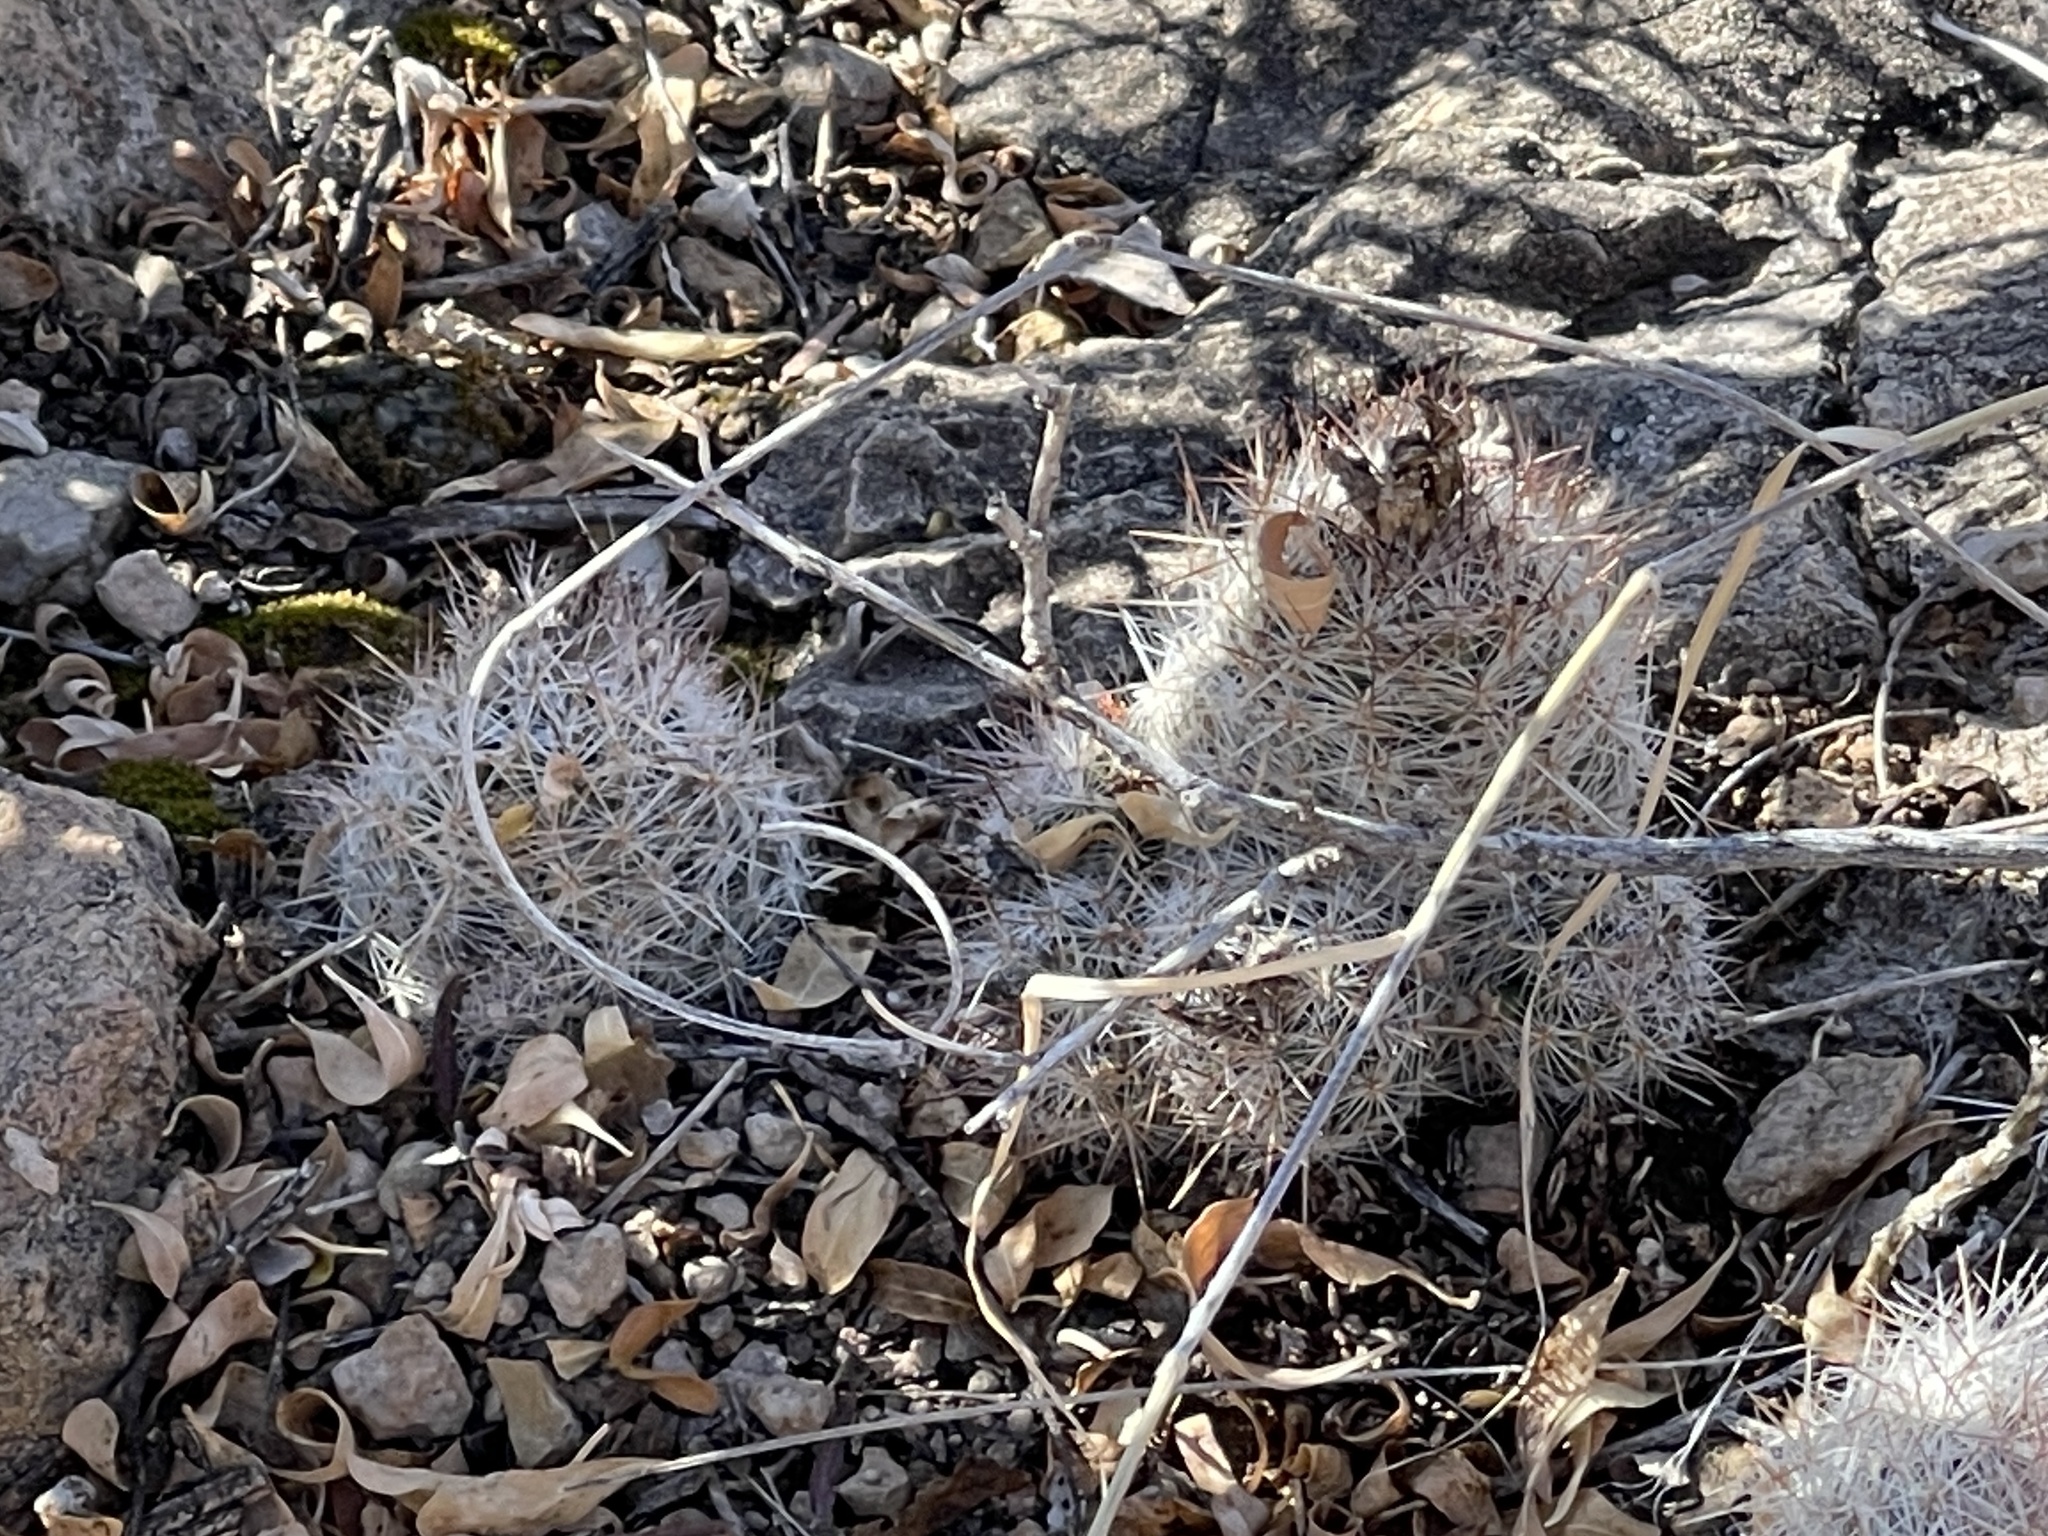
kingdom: Plantae
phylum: Tracheophyta
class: Magnoliopsida
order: Caryophyllales
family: Cactaceae
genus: Pelecyphora
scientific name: Pelecyphora tuberculosa
